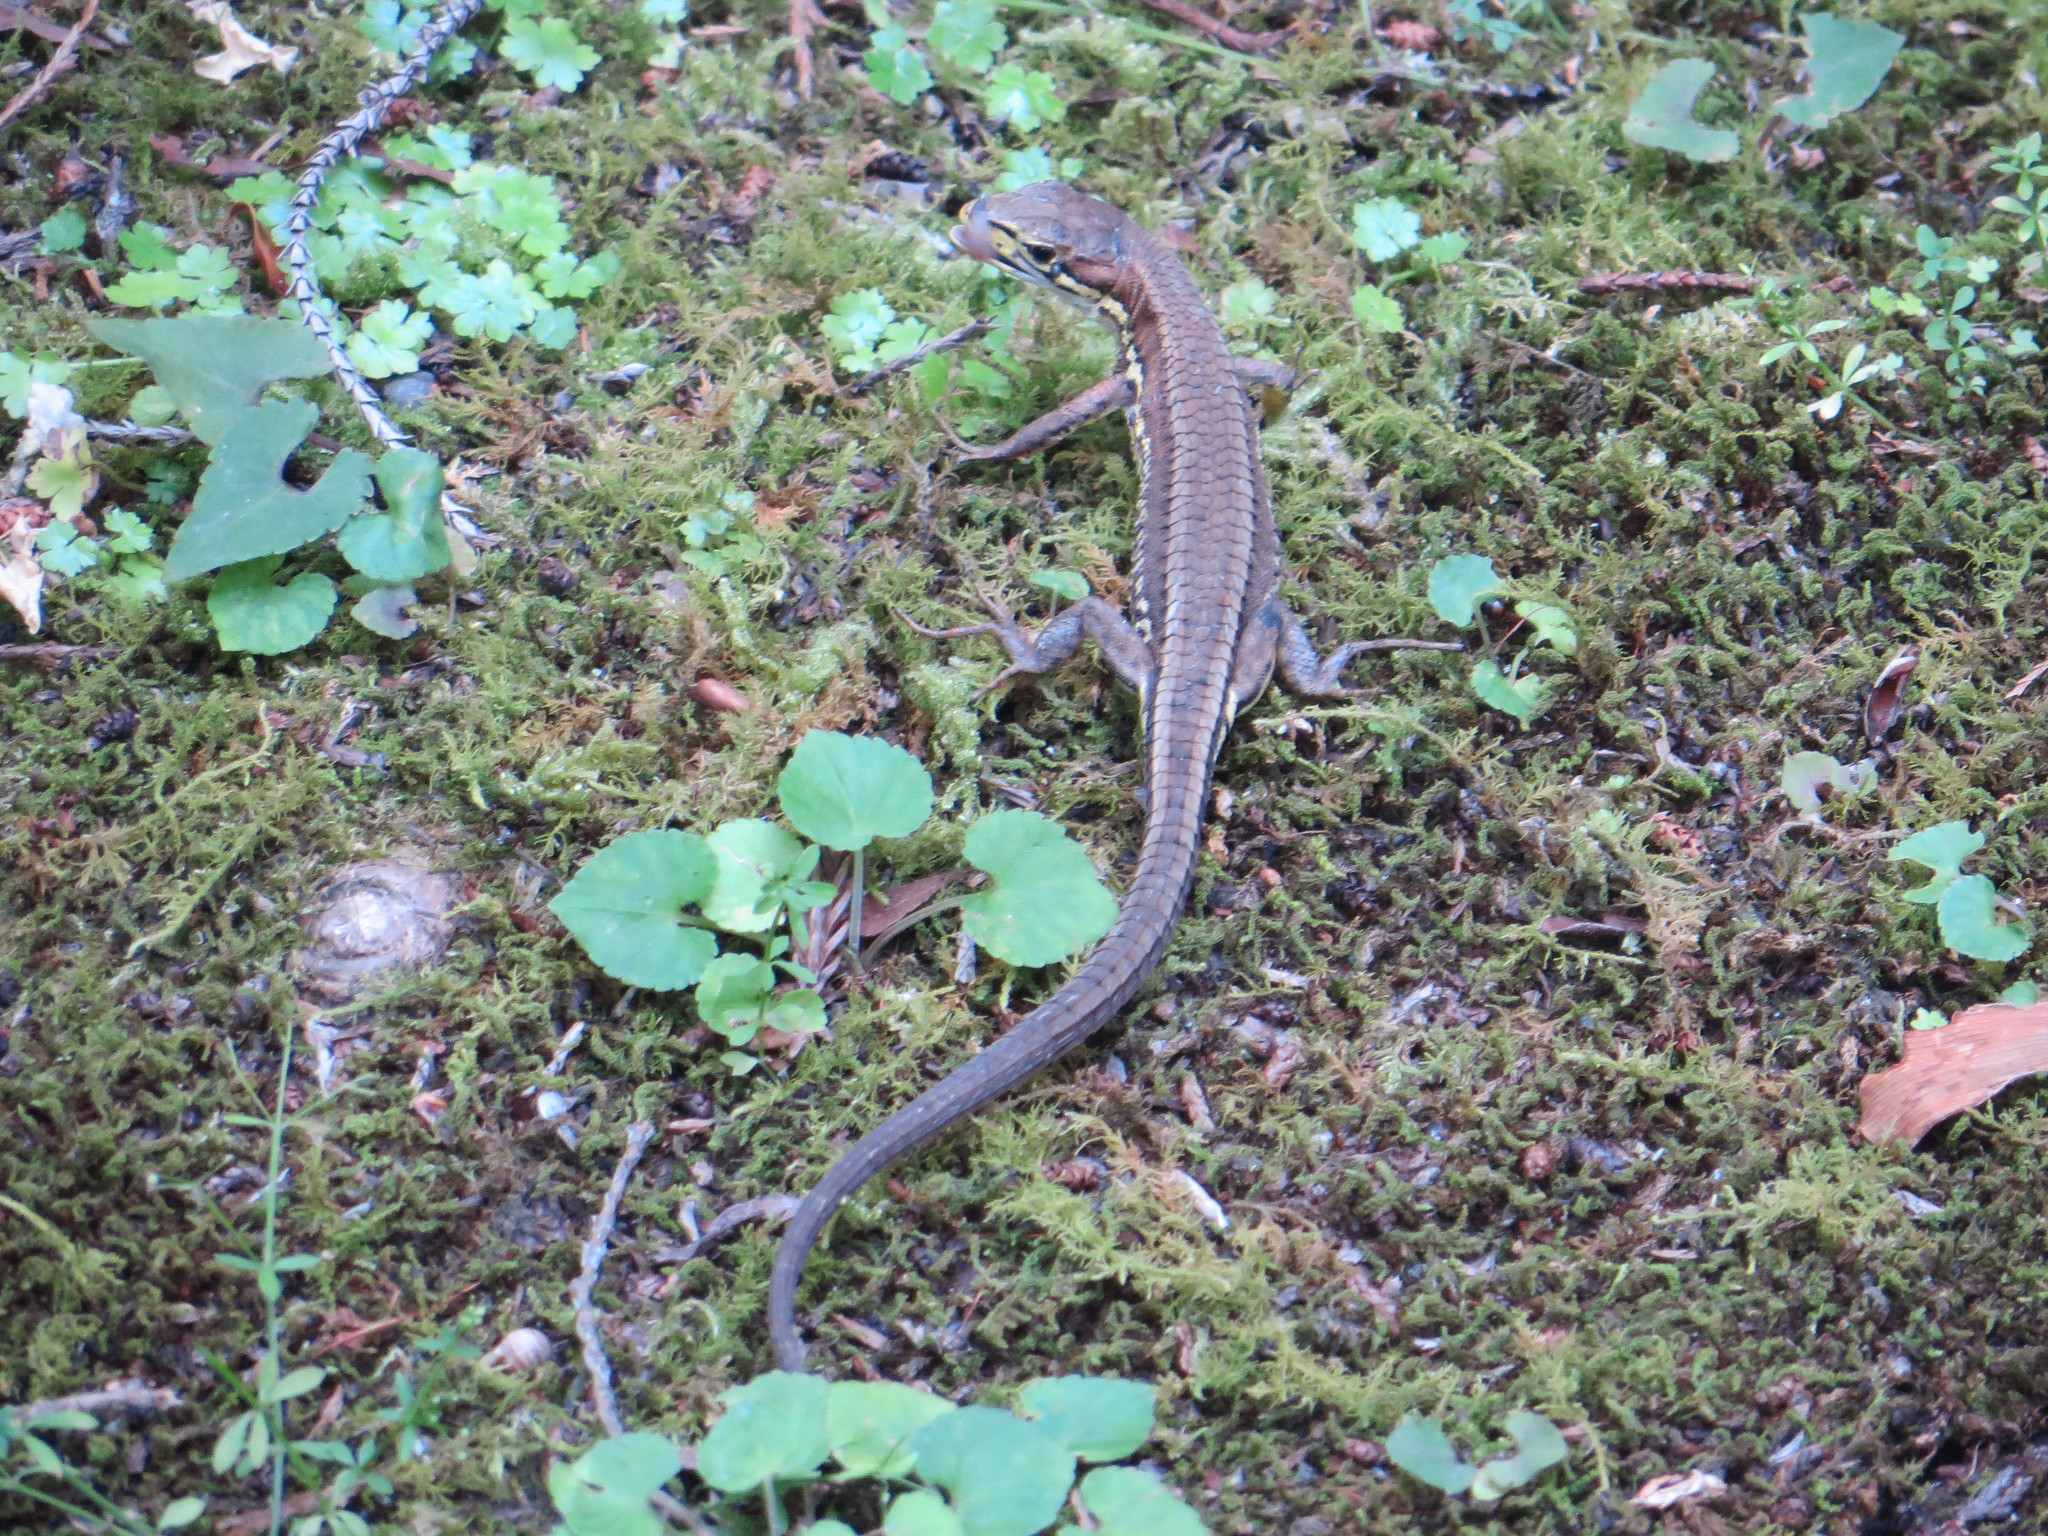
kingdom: Animalia
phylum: Chordata
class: Squamata
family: Lacertidae
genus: Takydromus
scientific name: Takydromus tachydromoides
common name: Japanese grass lizard
